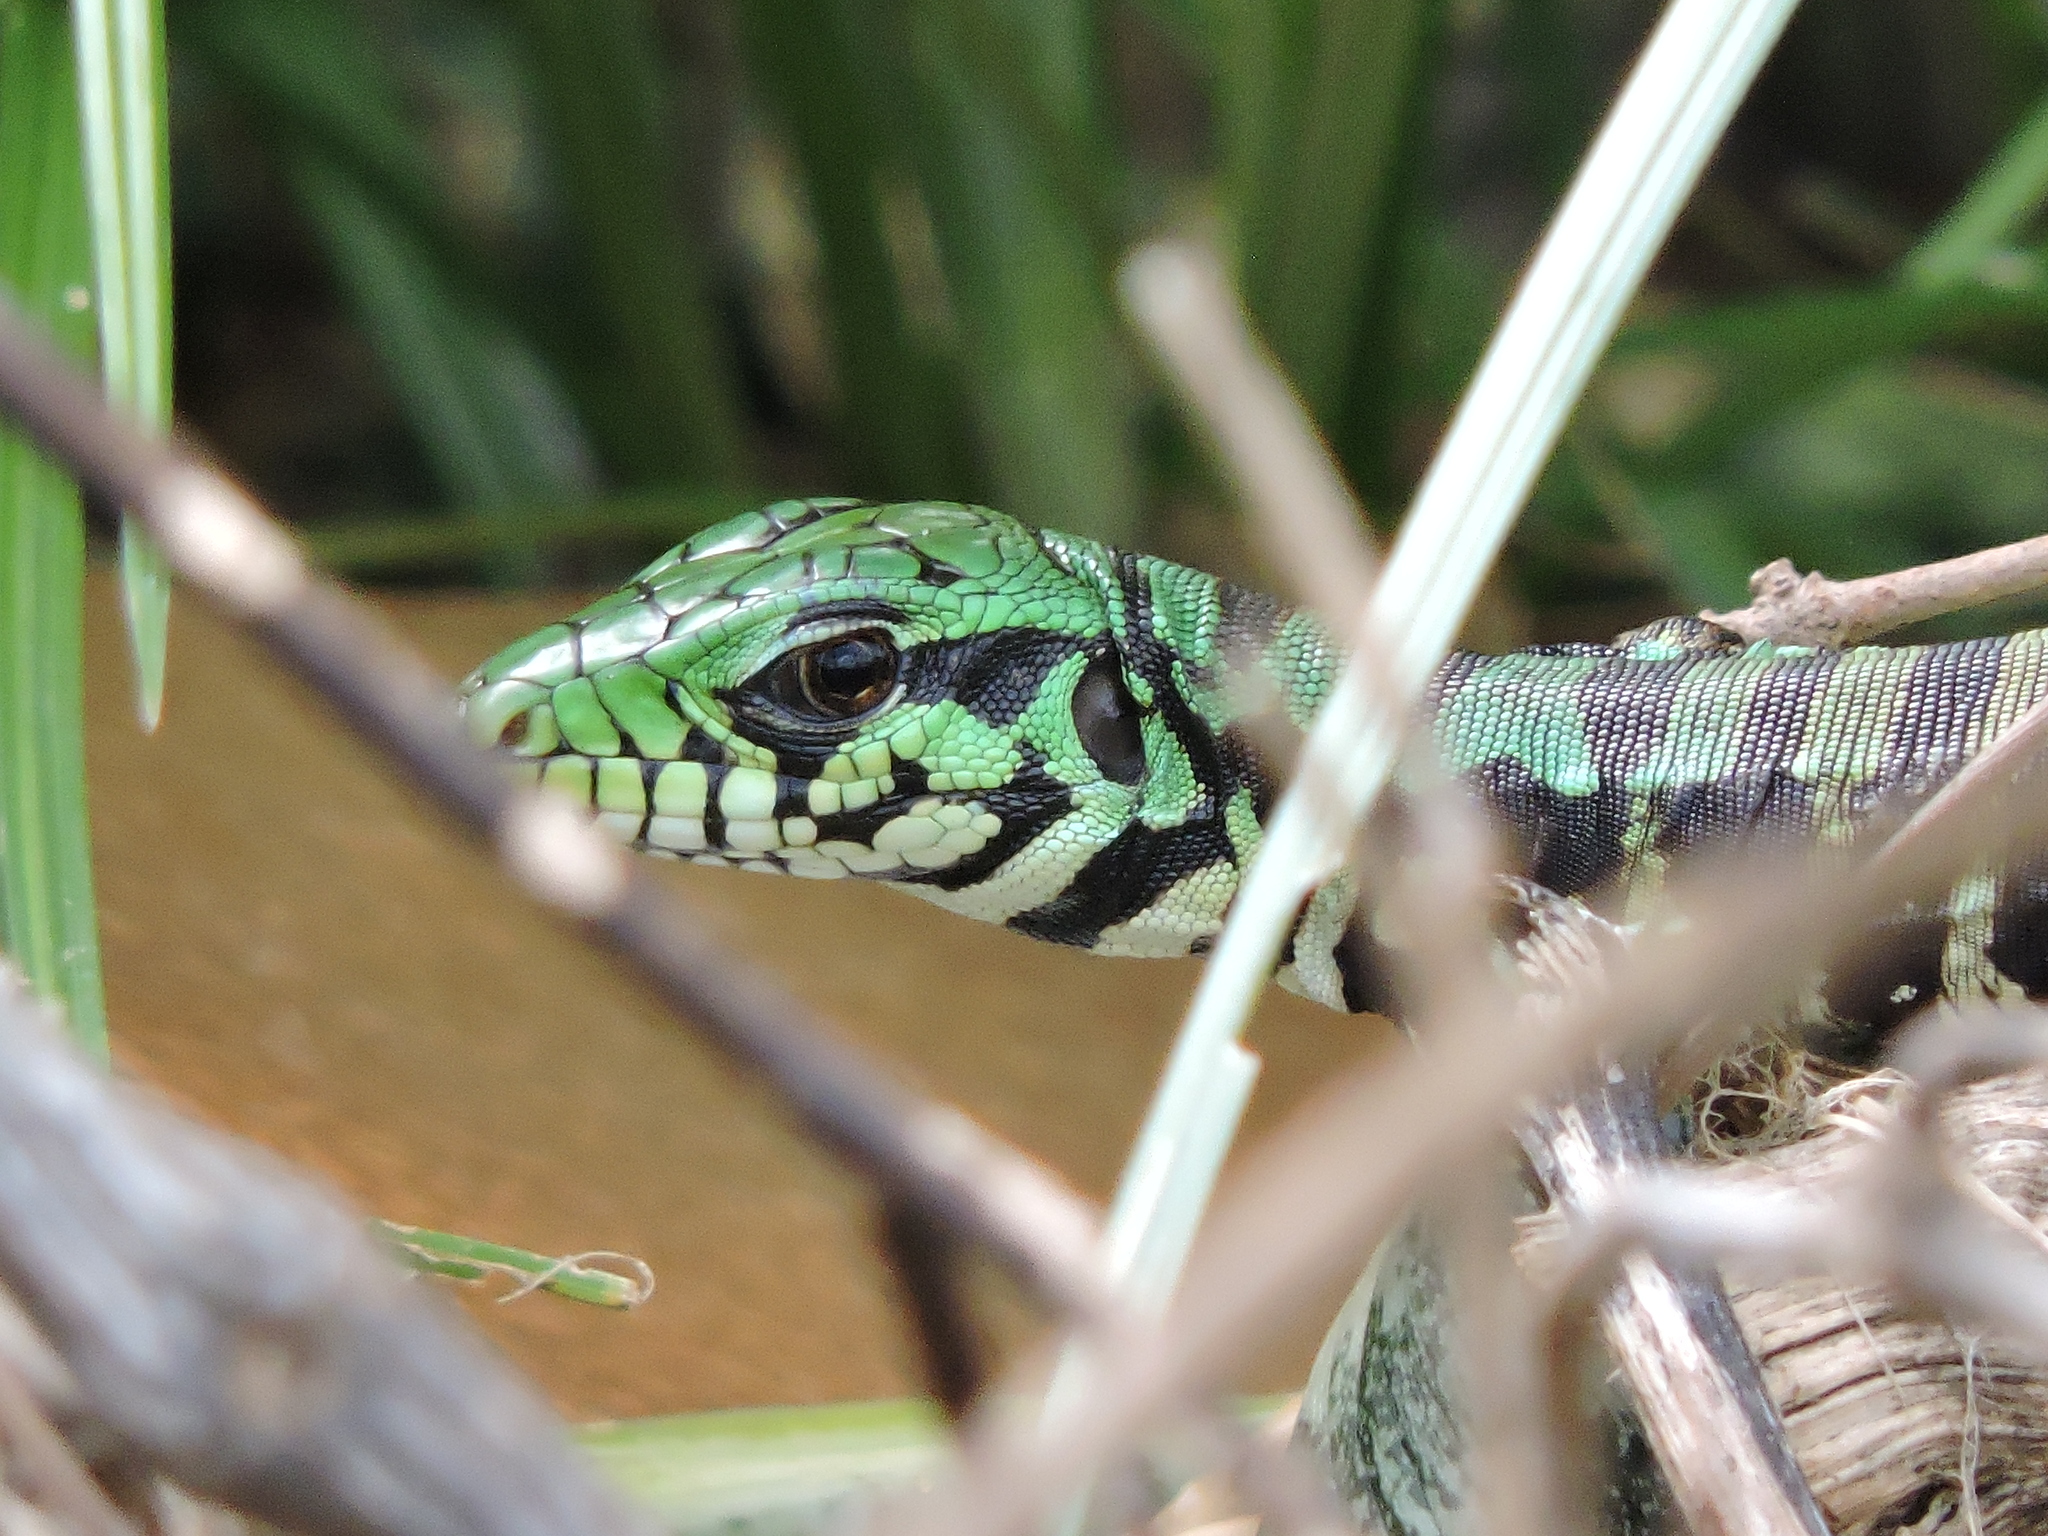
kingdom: Animalia
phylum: Chordata
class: Squamata
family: Teiidae
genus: Salvator
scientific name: Salvator merianae
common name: Argentine black and white tegu
